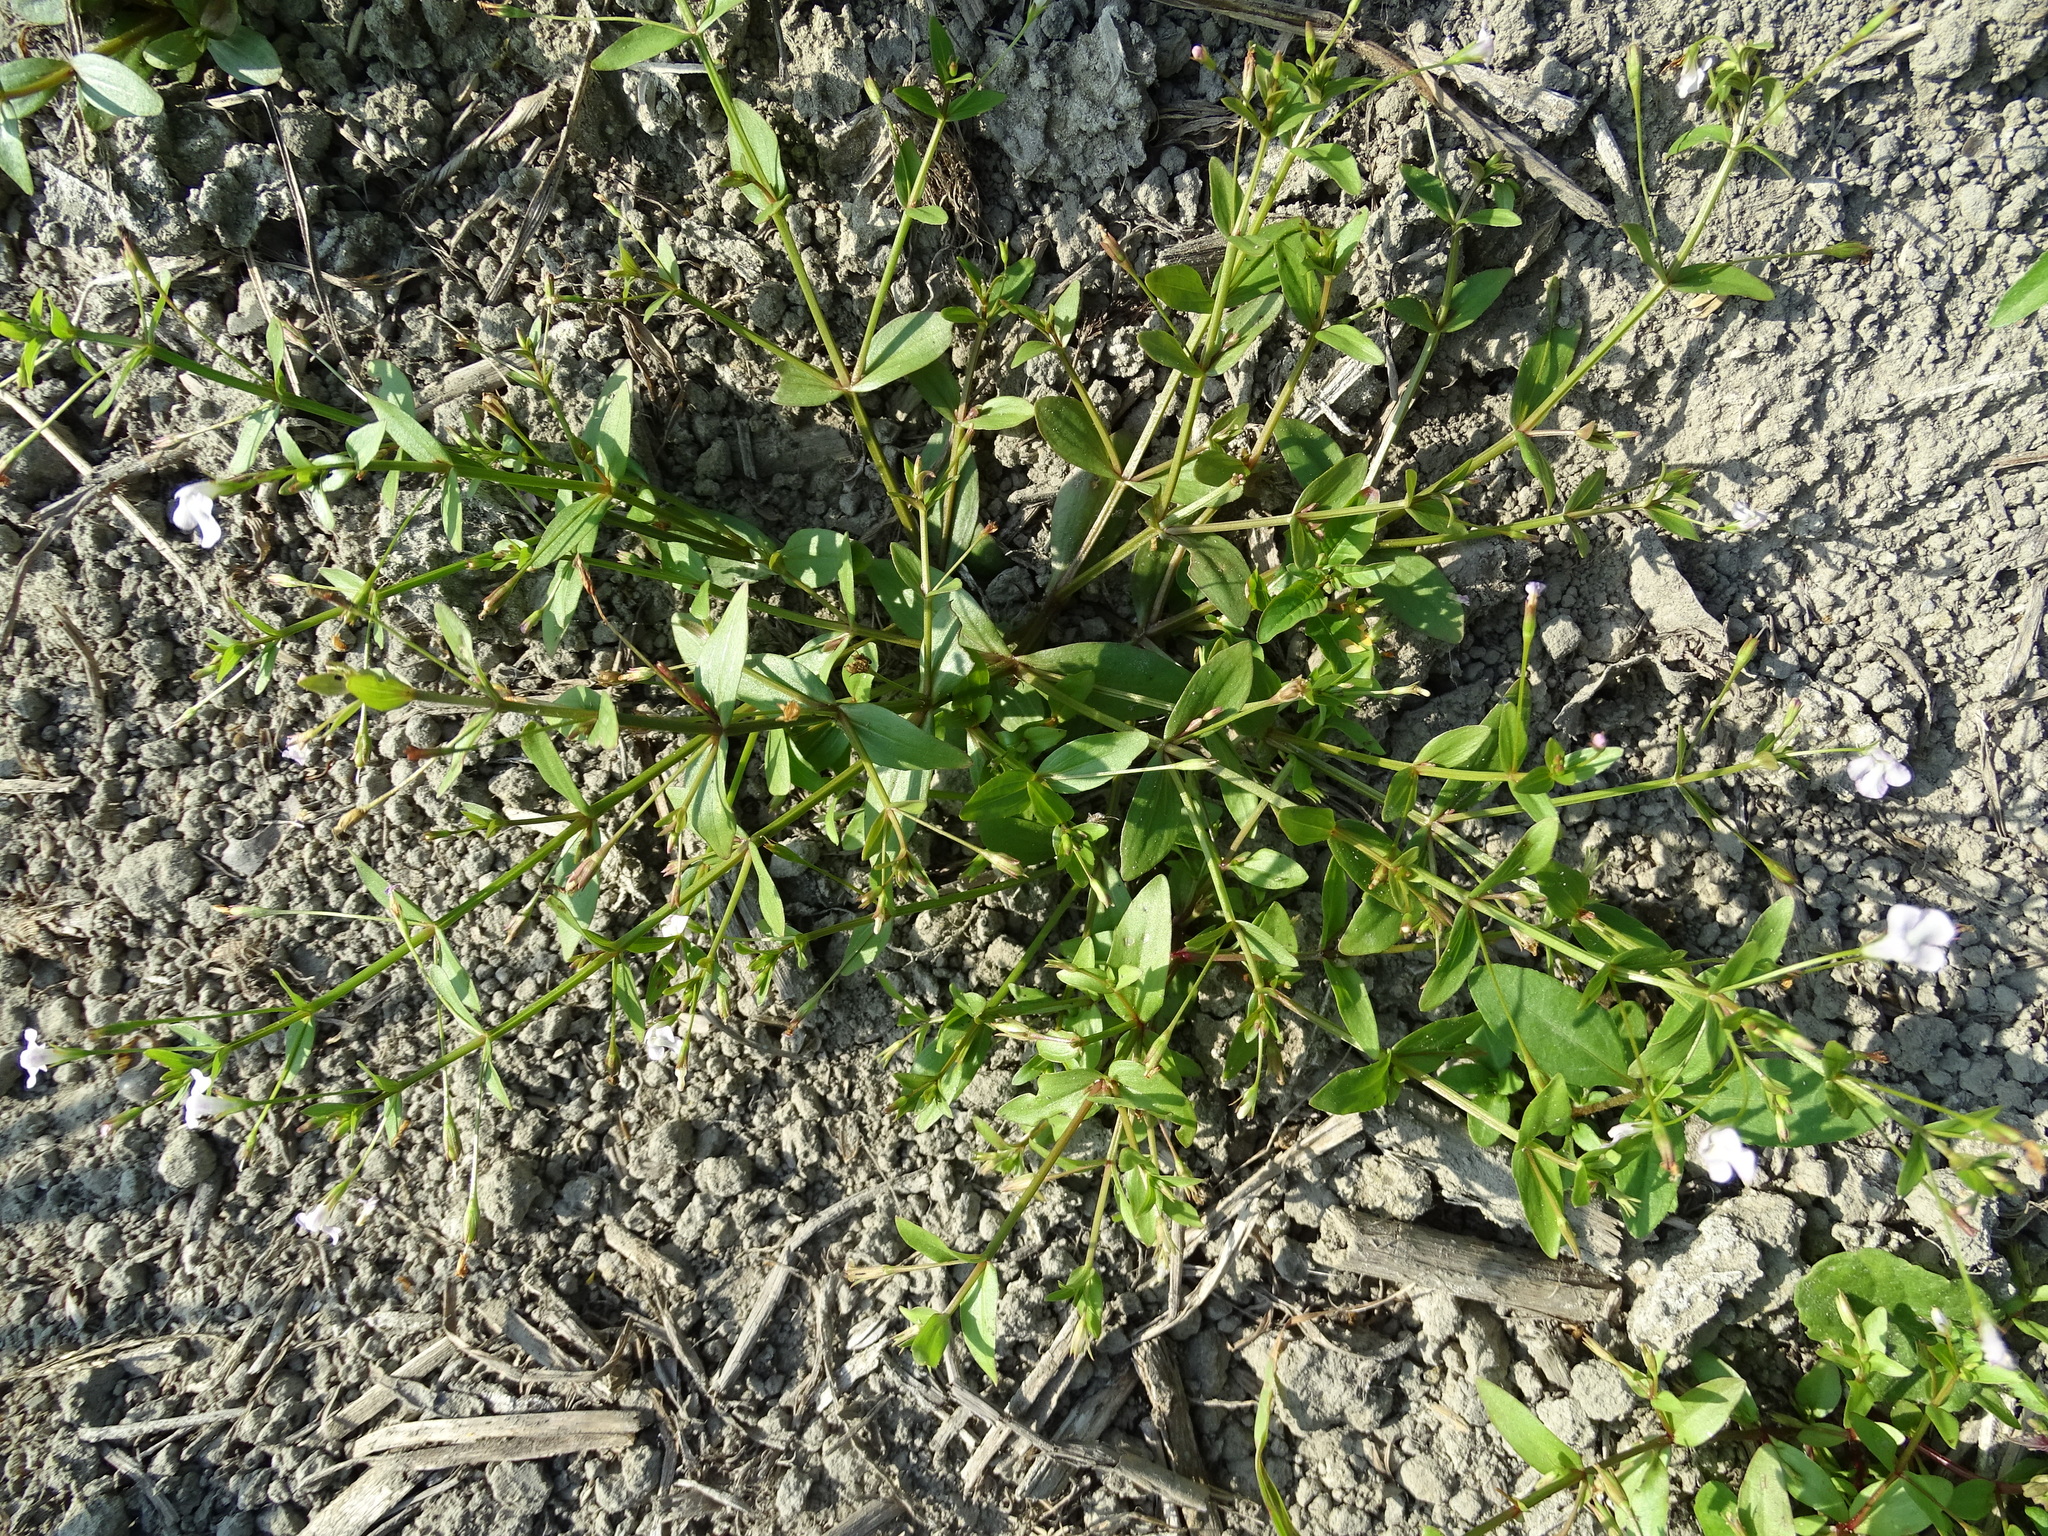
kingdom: Plantae
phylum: Tracheophyta
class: Magnoliopsida
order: Lamiales
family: Linderniaceae
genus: Lindernia
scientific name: Lindernia procumbens
